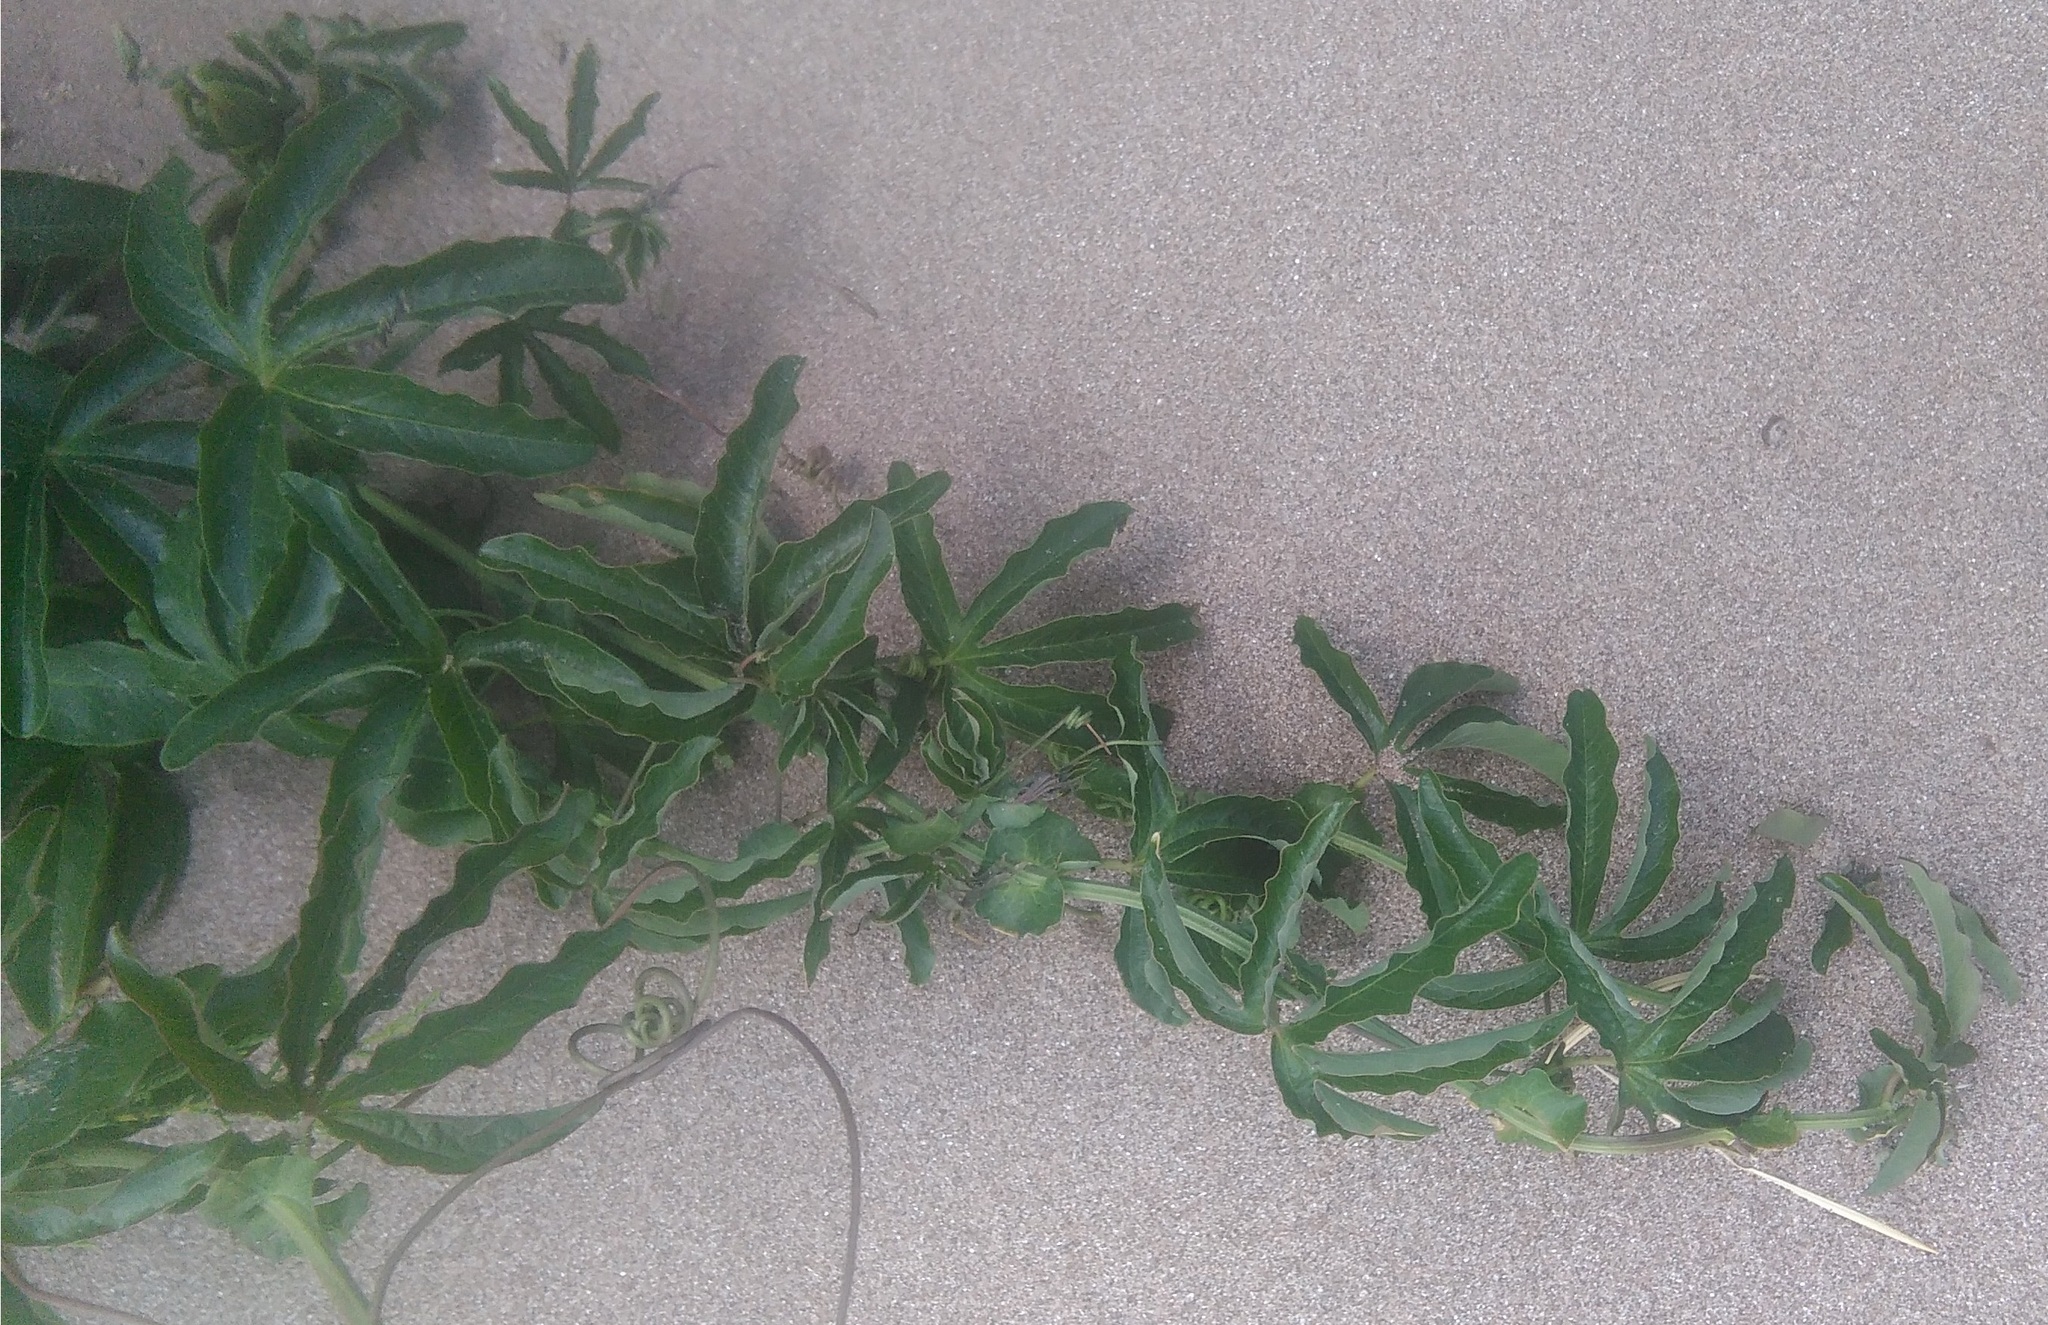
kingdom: Plantae
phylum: Tracheophyta
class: Magnoliopsida
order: Malpighiales
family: Passifloraceae
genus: Passiflora
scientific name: Passiflora caerulea
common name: Blue passionflower
